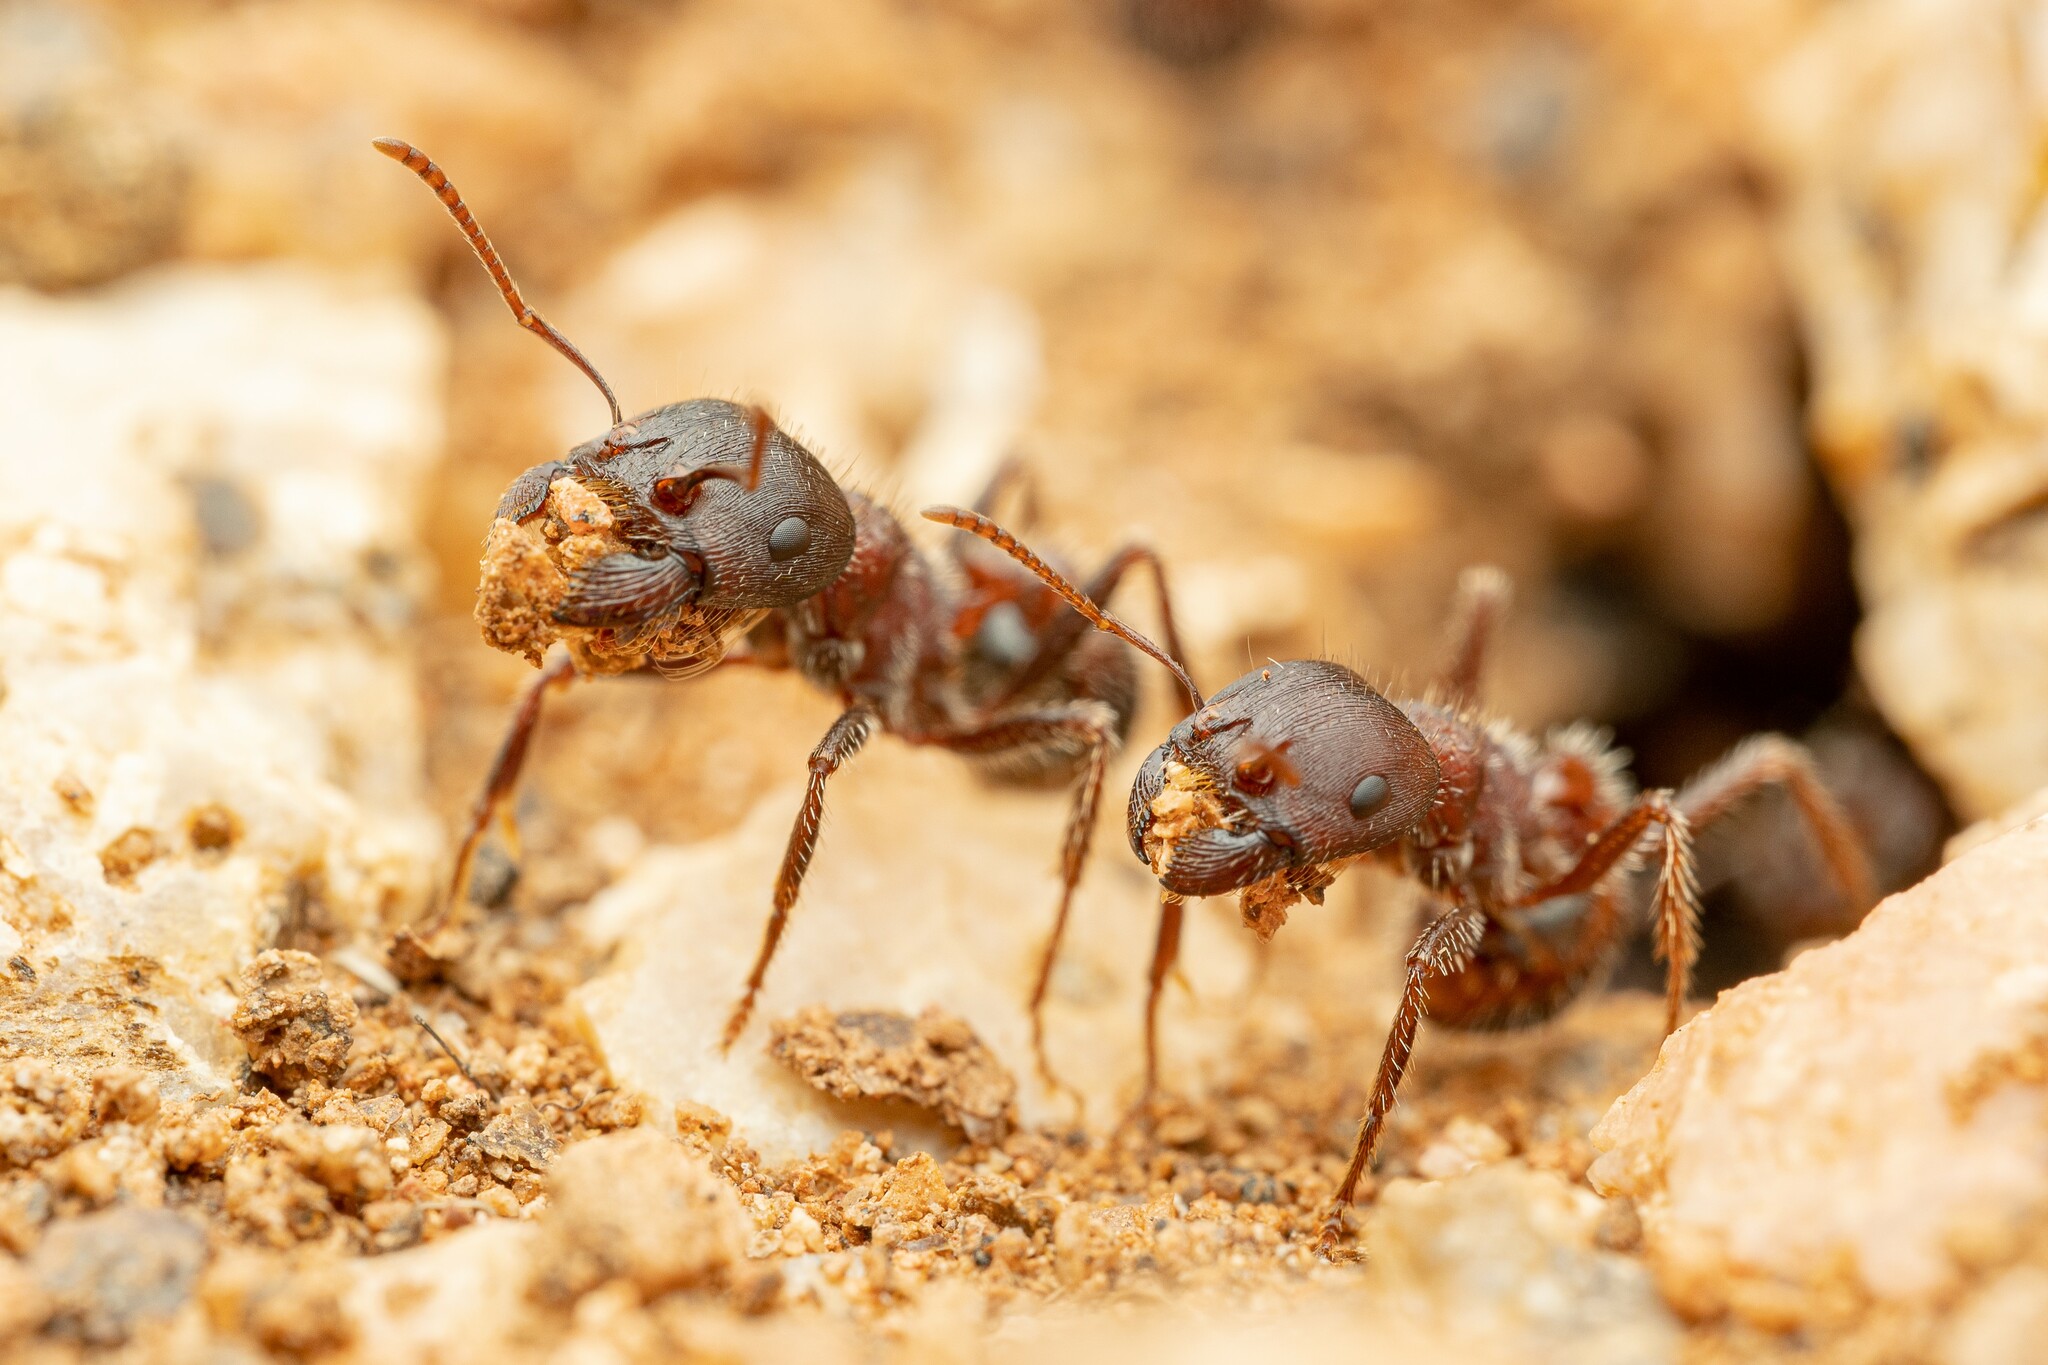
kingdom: Animalia
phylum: Arthropoda
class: Insecta
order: Hymenoptera
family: Formicidae
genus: Pogonomyrmex
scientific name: Pogonomyrmex rugosus
